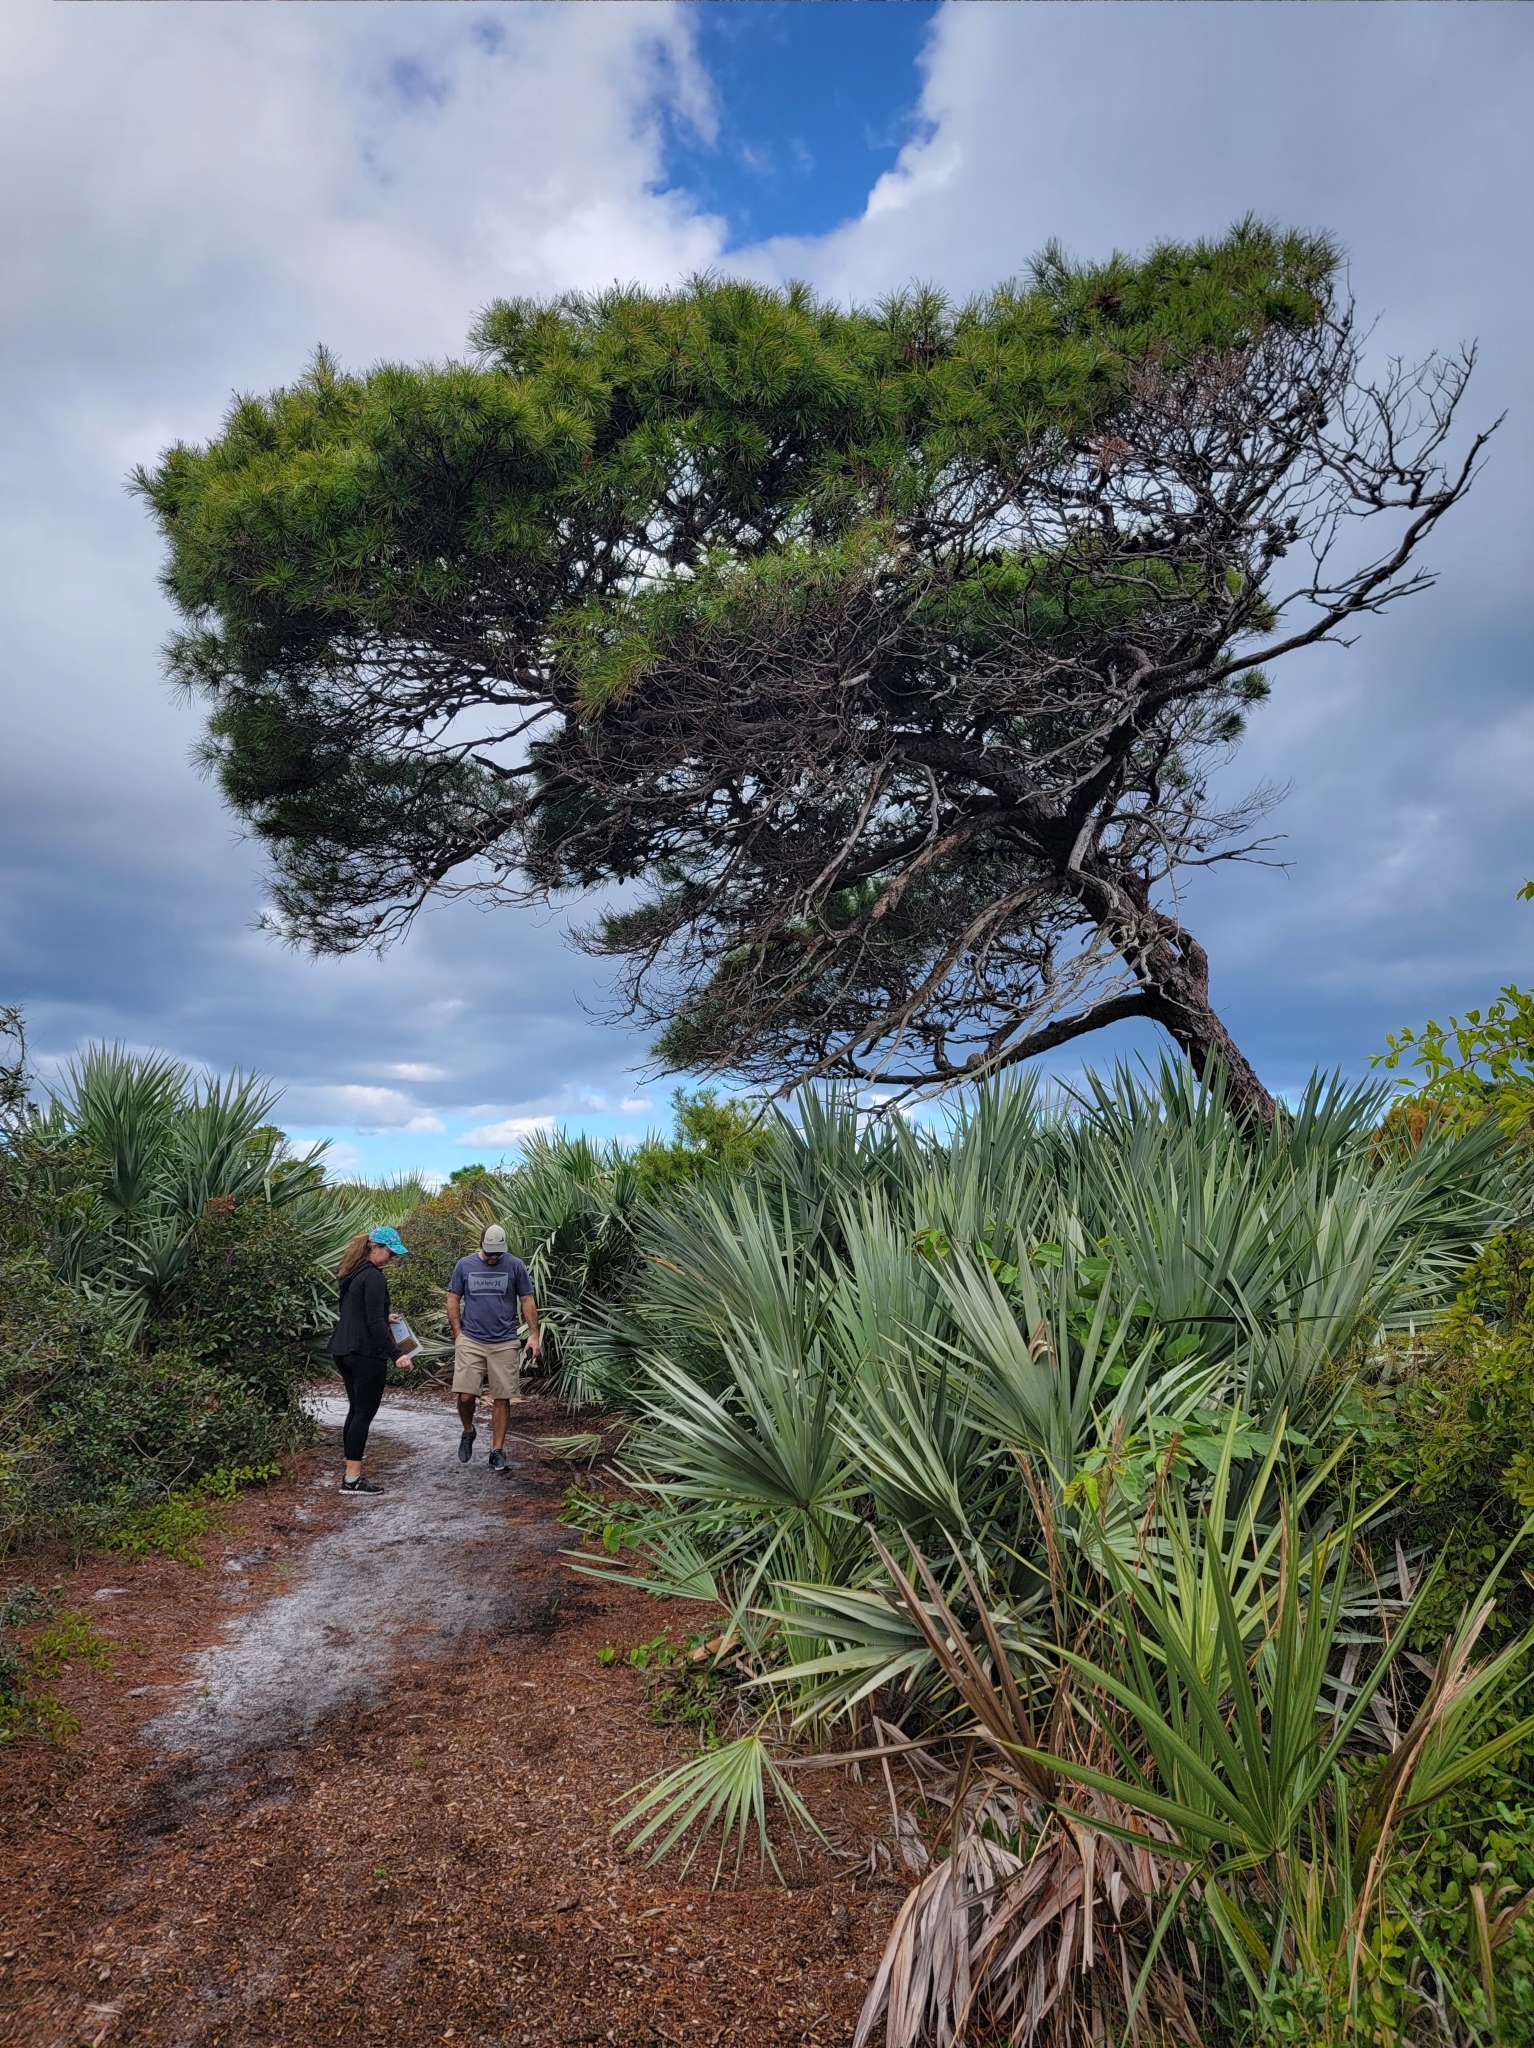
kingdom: Plantae
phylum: Tracheophyta
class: Pinopsida
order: Pinales
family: Pinaceae
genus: Pinus
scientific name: Pinus clausa
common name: Sand pine
